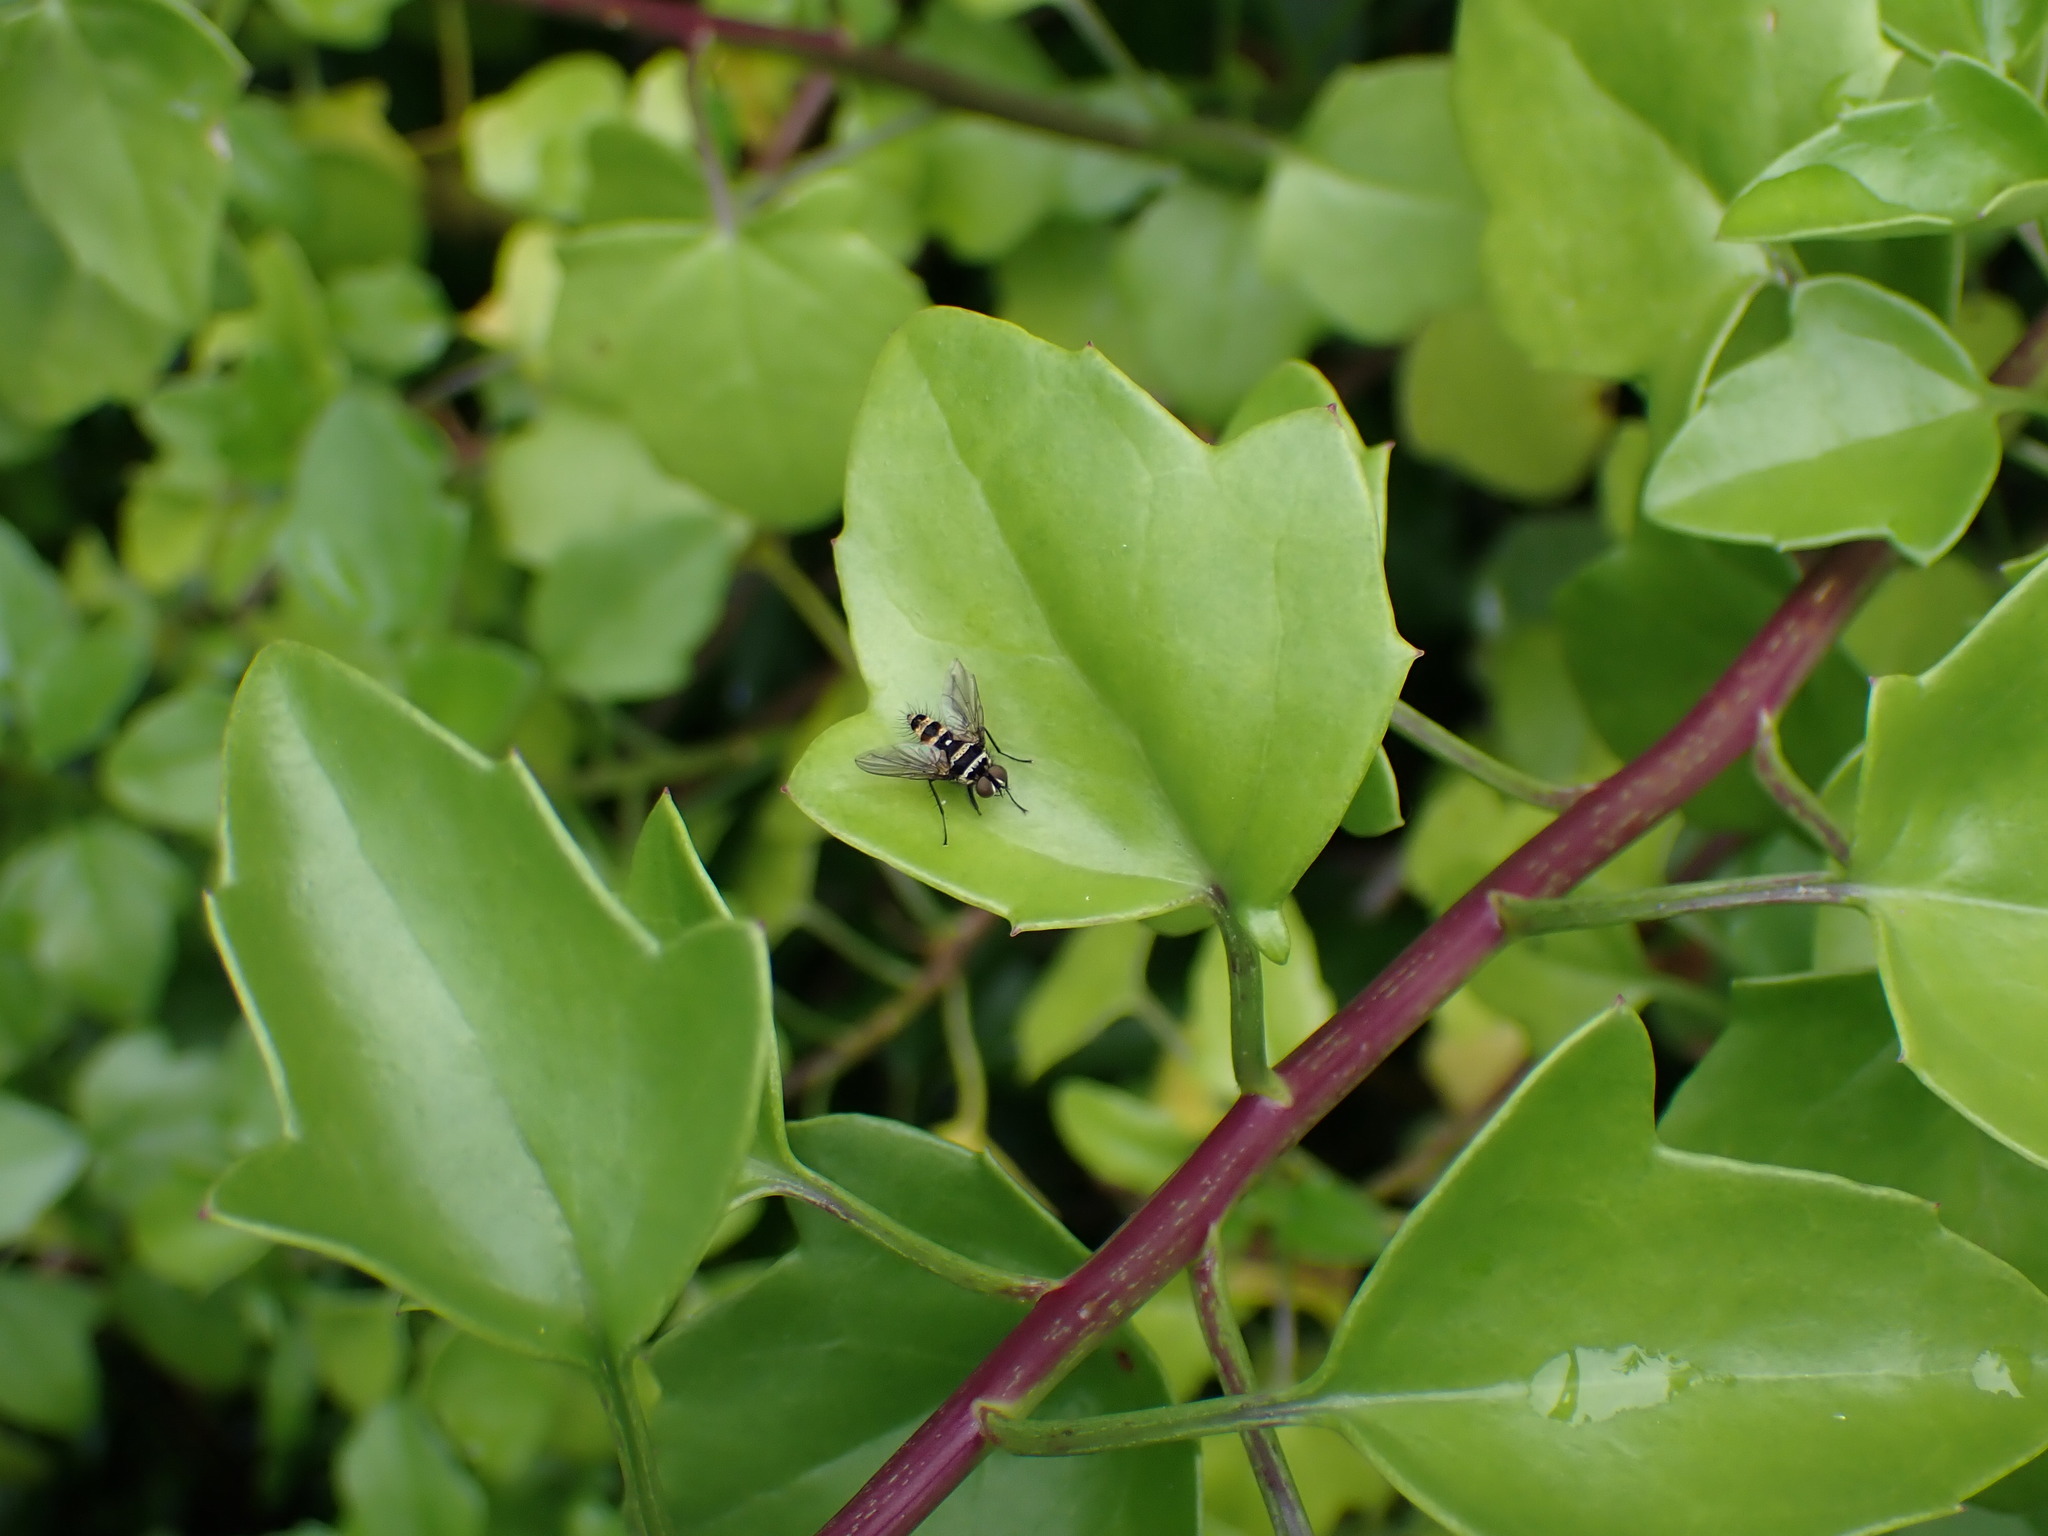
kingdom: Animalia
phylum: Arthropoda
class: Insecta
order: Diptera
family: Tachinidae
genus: Trigonospila
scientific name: Trigonospila brevifacies
